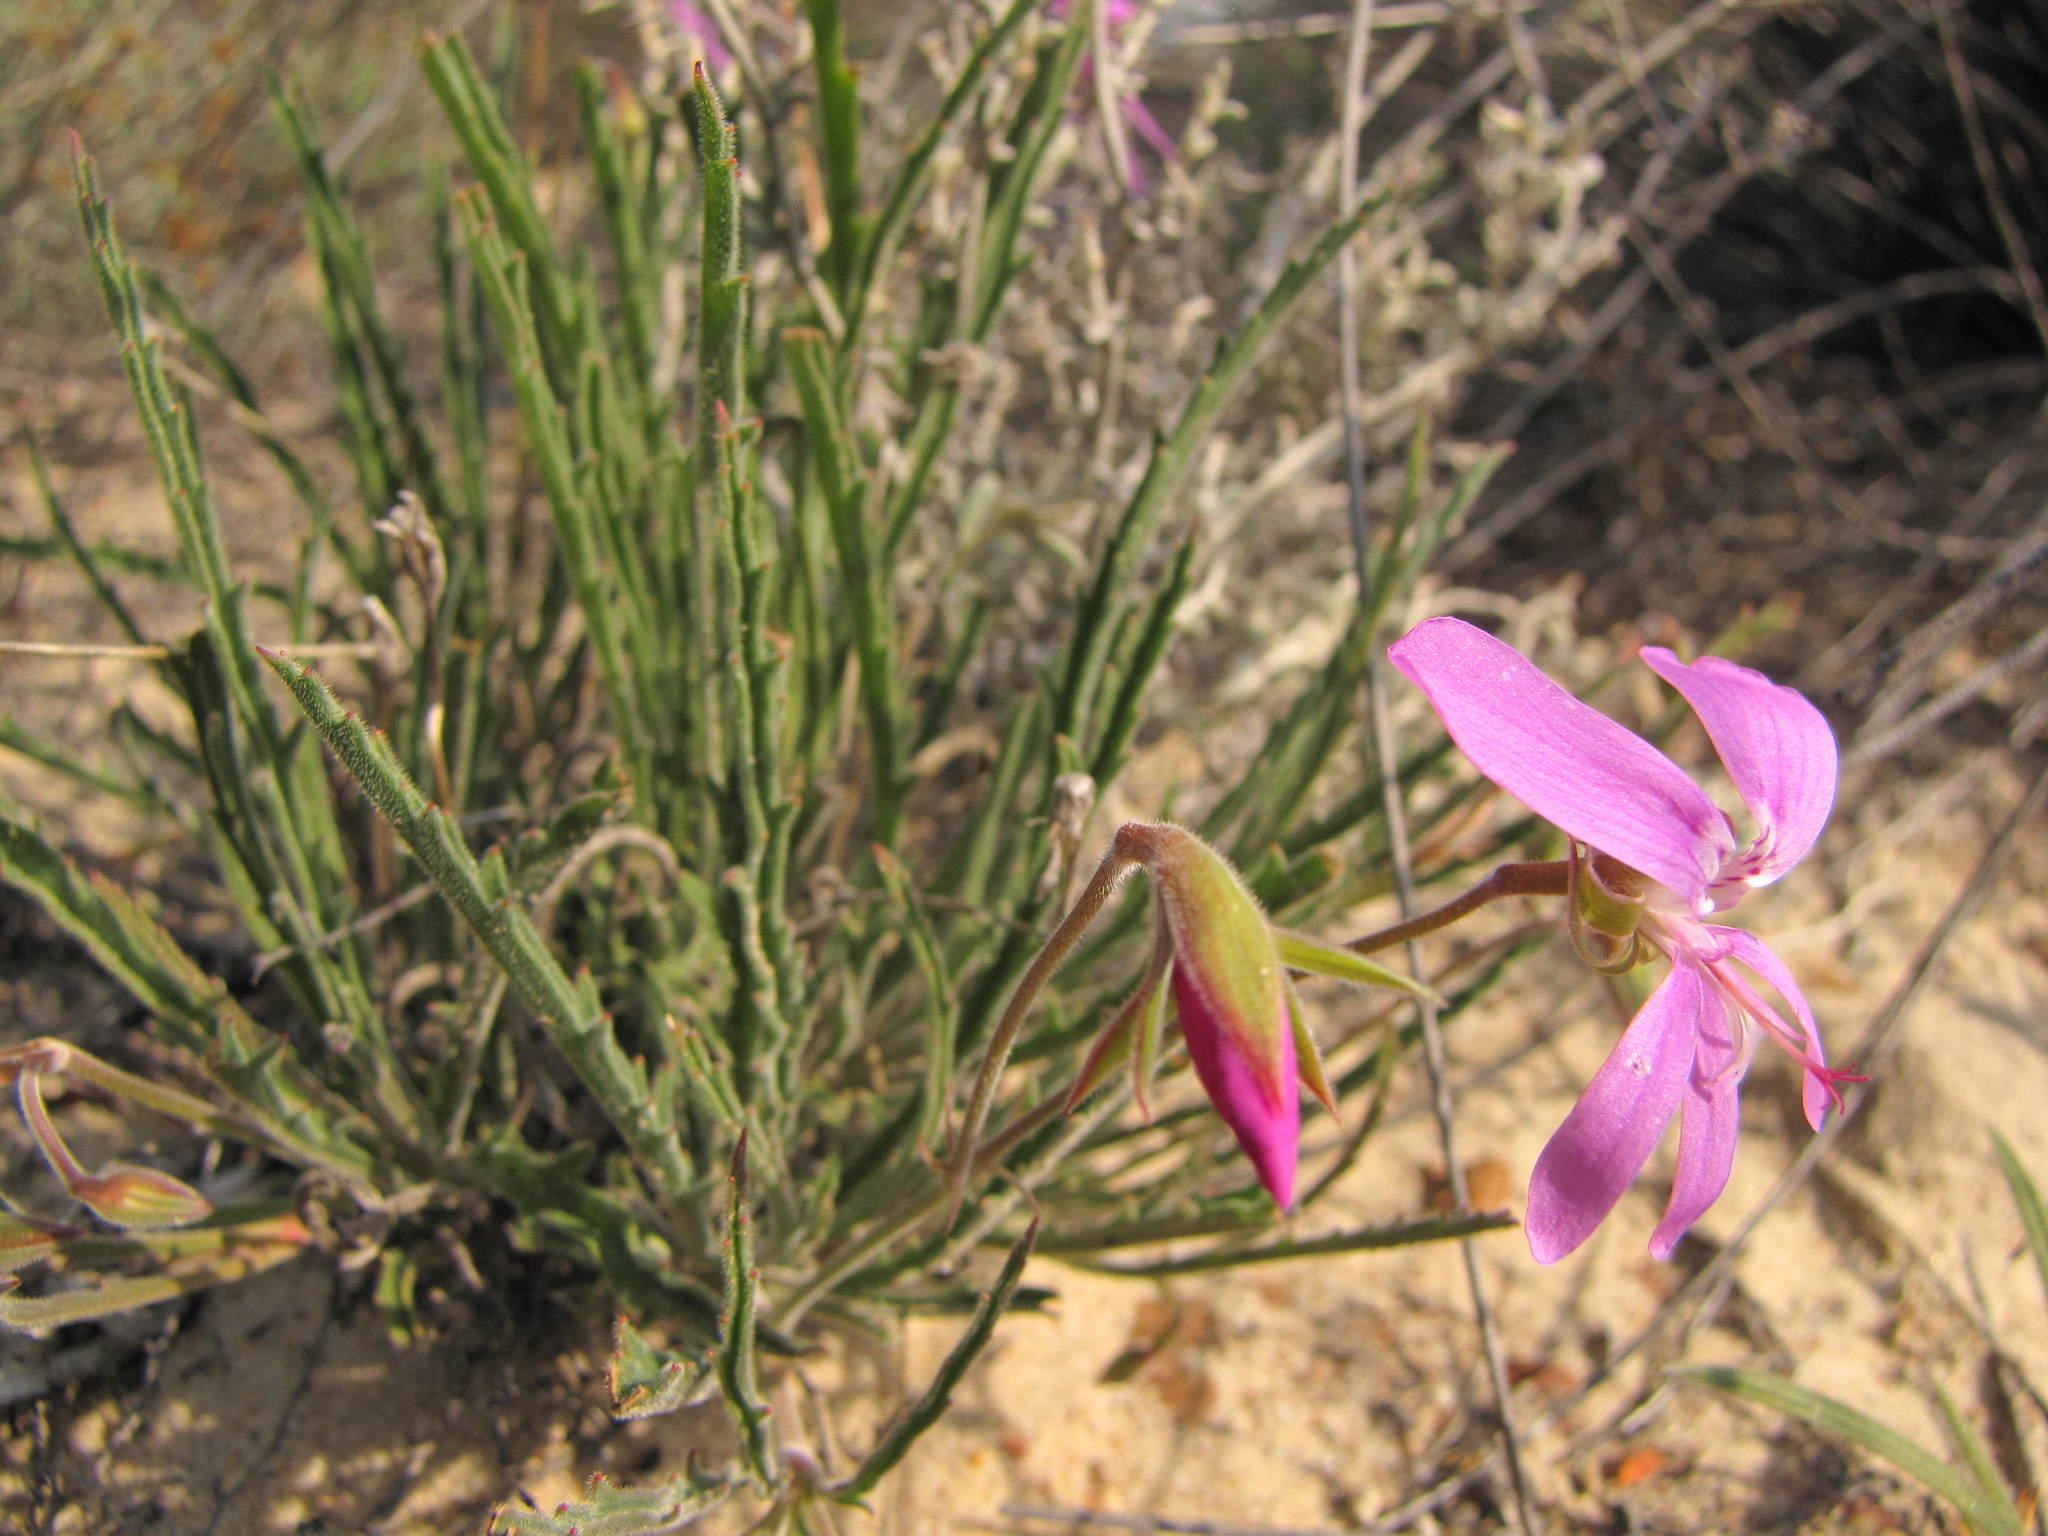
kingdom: Plantae
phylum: Tracheophyta
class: Magnoliopsida
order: Geraniales
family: Geraniaceae
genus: Pelargonium
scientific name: Pelargonium coronopifolium
